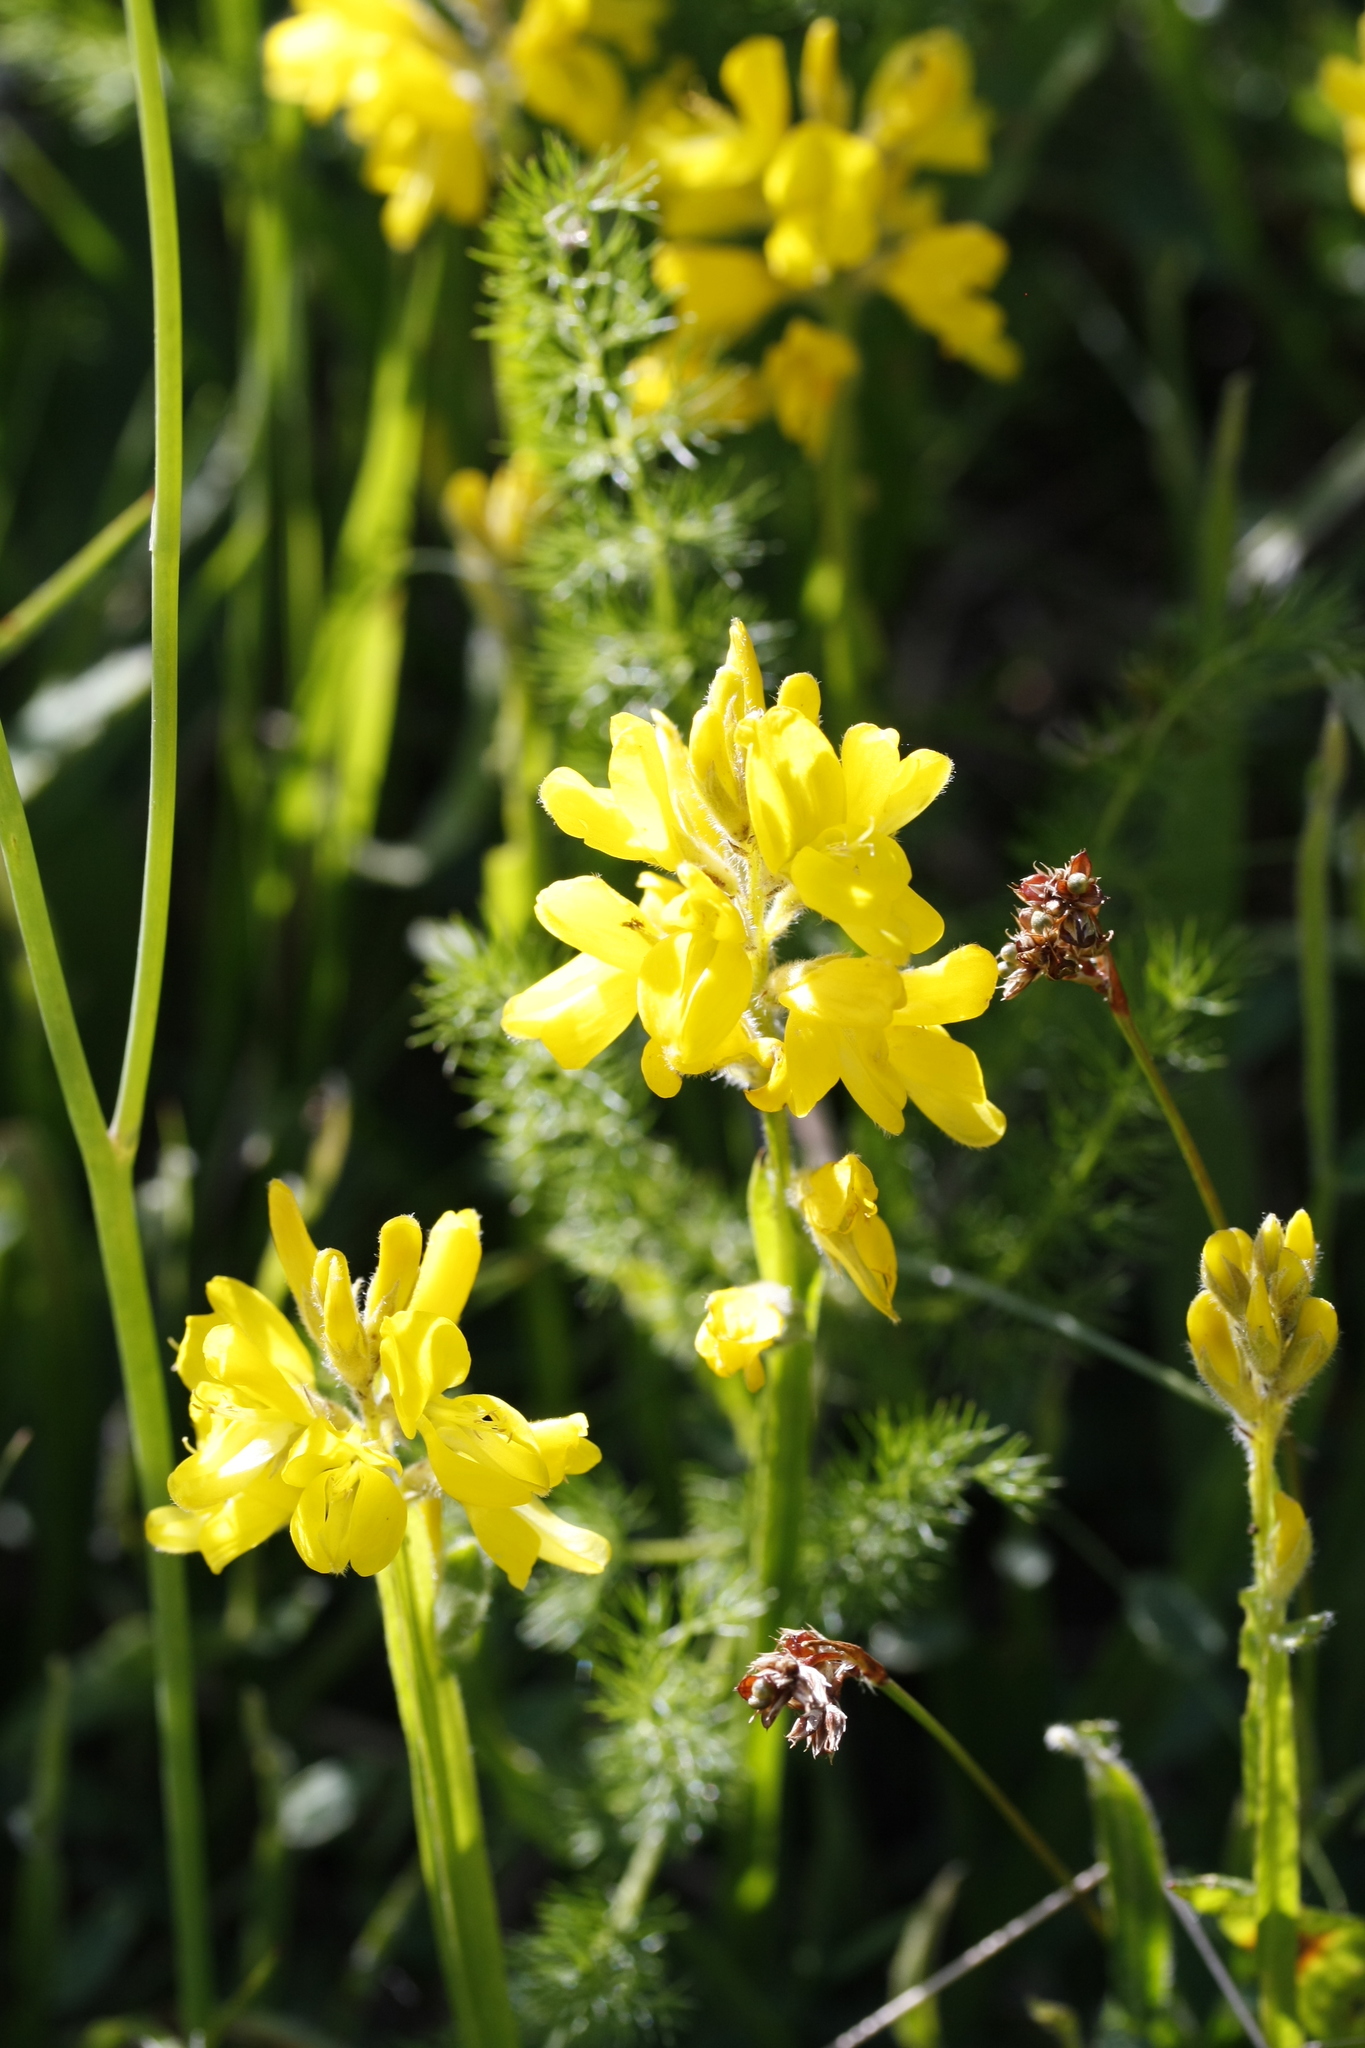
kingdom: Plantae
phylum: Tracheophyta
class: Magnoliopsida
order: Fabales
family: Fabaceae
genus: Genista
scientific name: Genista sagittalis
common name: Winged greenweed
